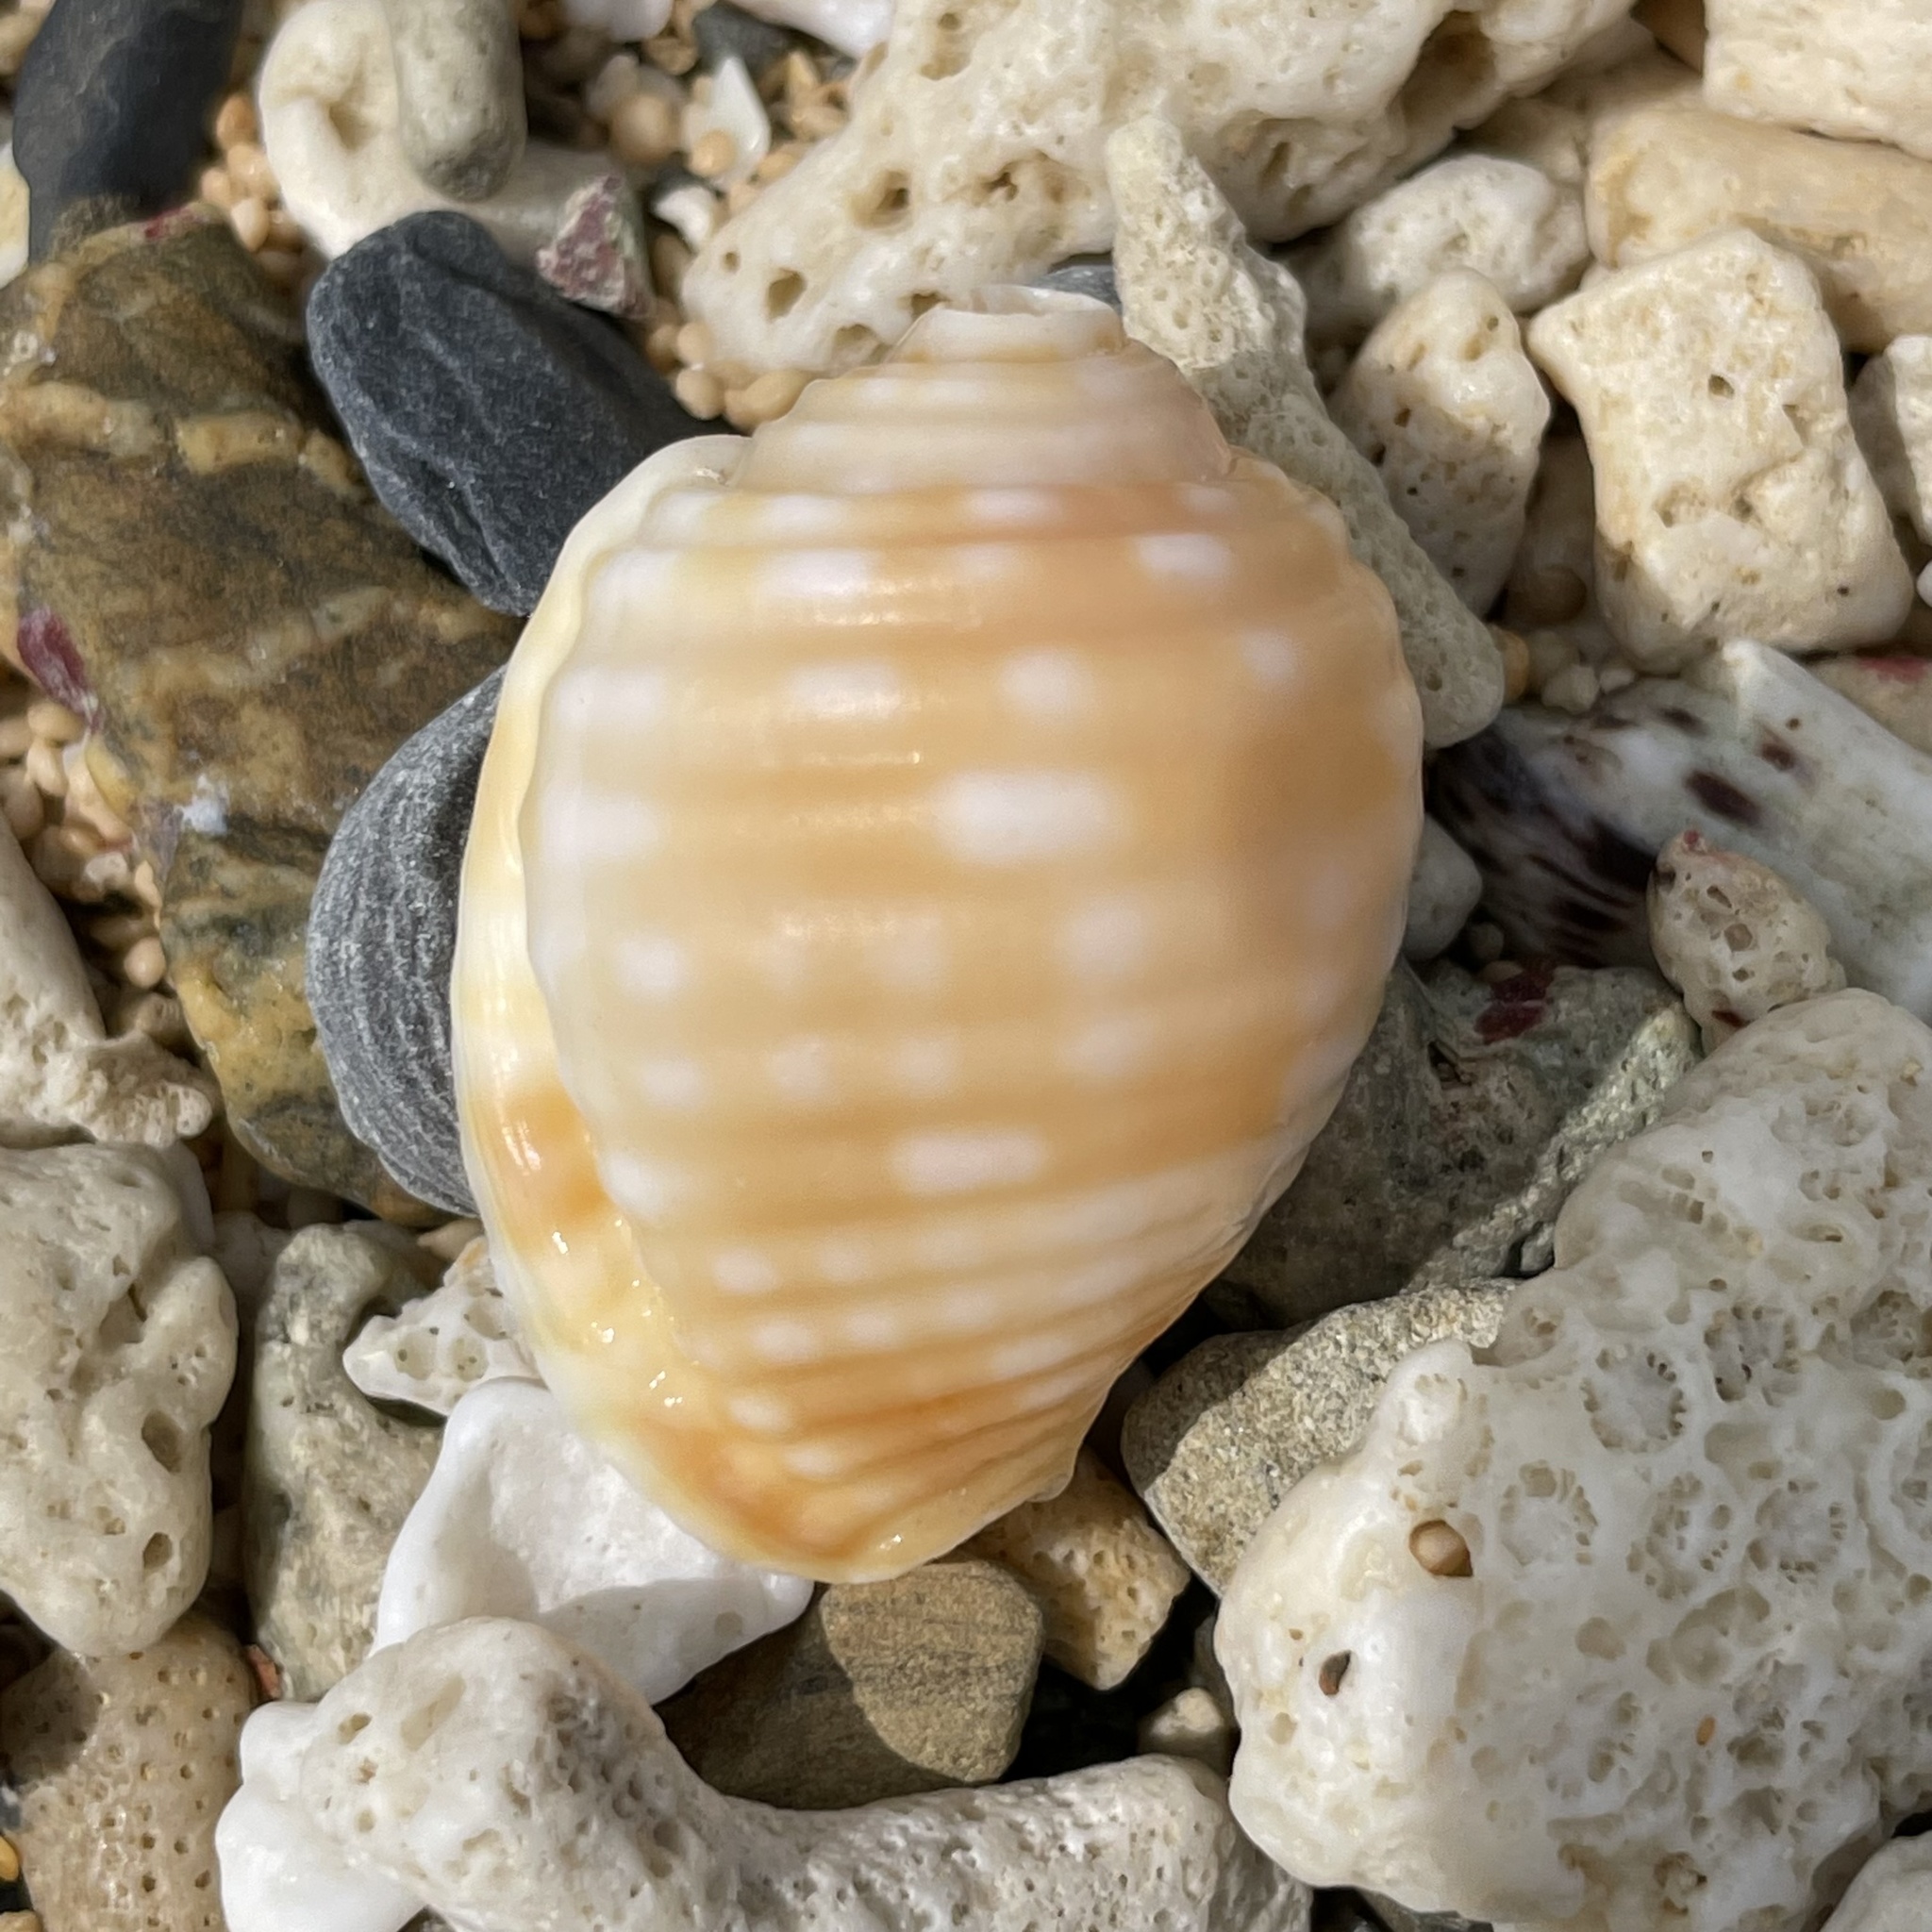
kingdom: Animalia
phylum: Mollusca
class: Gastropoda
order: Littorinimorpha
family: Tonnidae
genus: Malea
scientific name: Malea pomum
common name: Pacific grinning tun
